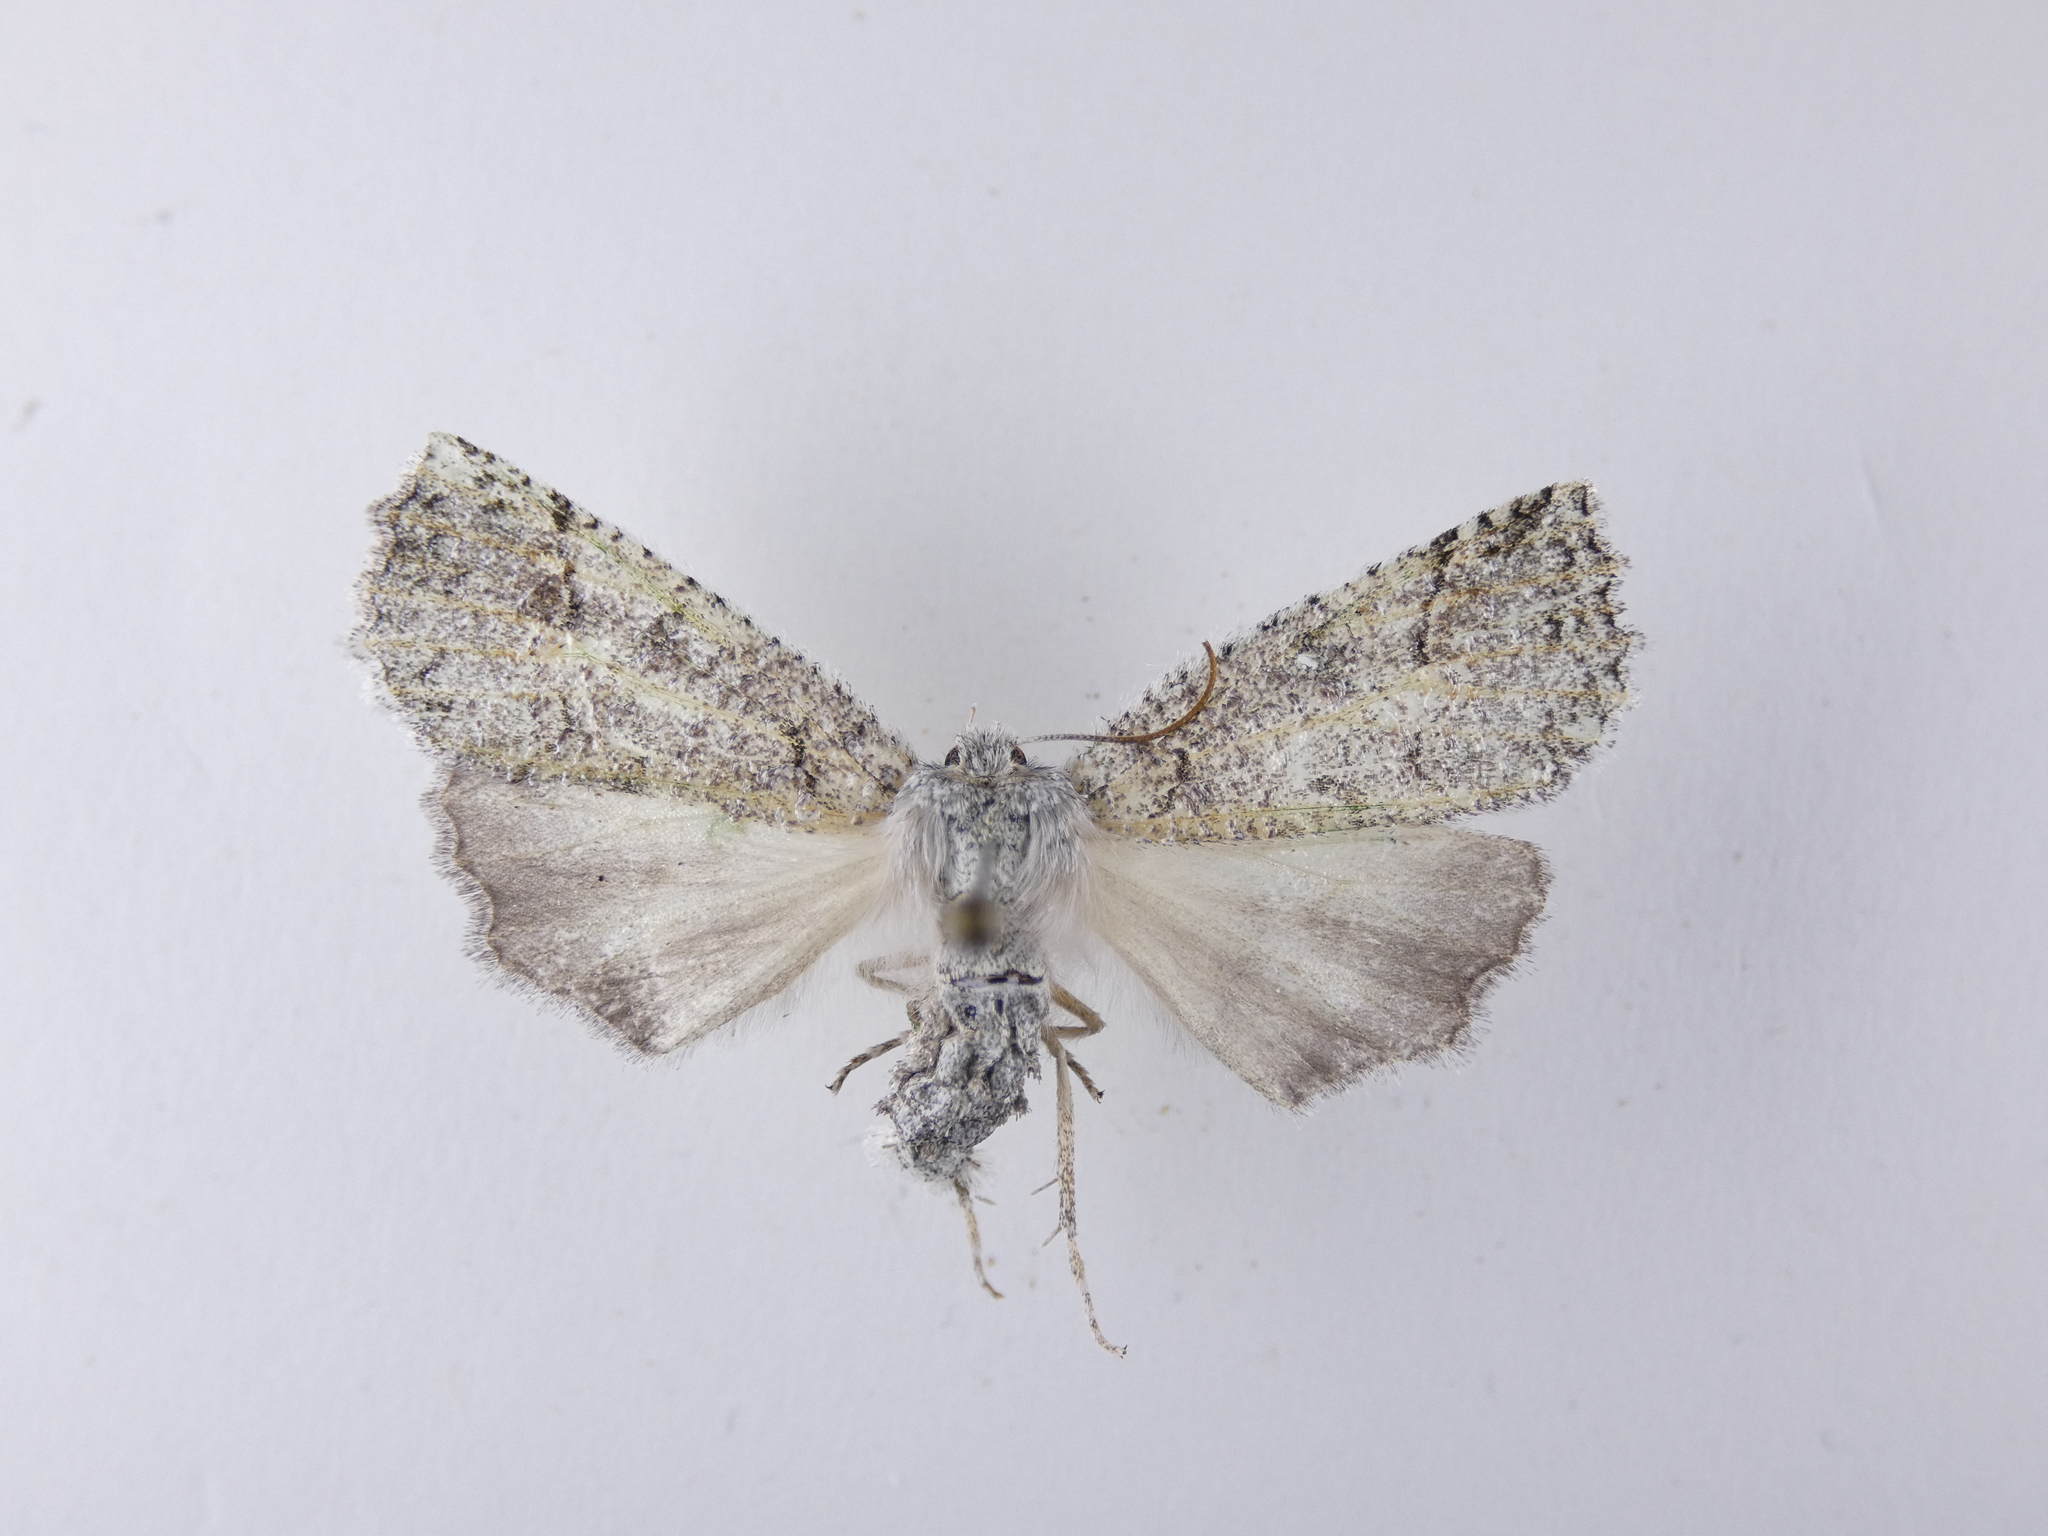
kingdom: Animalia
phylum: Arthropoda
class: Insecta
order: Lepidoptera
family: Geometridae
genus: Declana
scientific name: Declana floccosa
